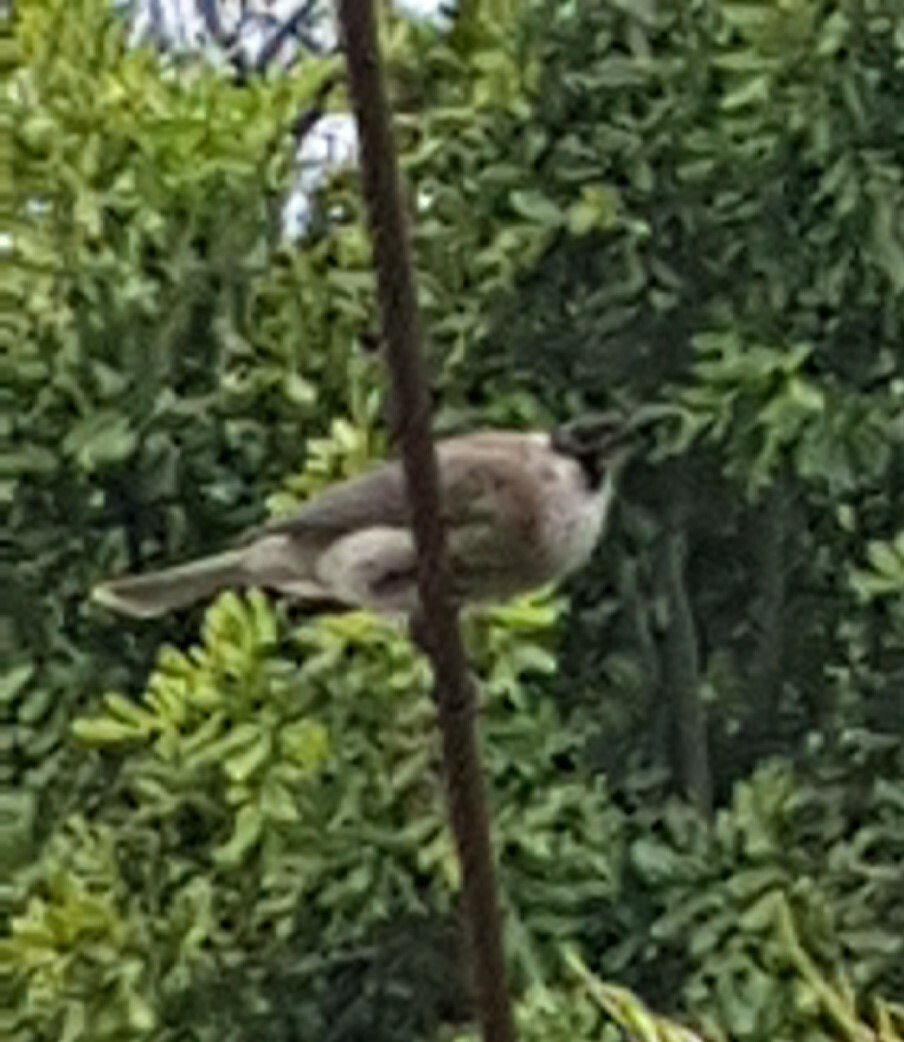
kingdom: Animalia
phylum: Chordata
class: Aves
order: Passeriformes
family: Meliphagidae
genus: Philemon
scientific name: Philemon corniculatus
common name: Noisy friarbird
